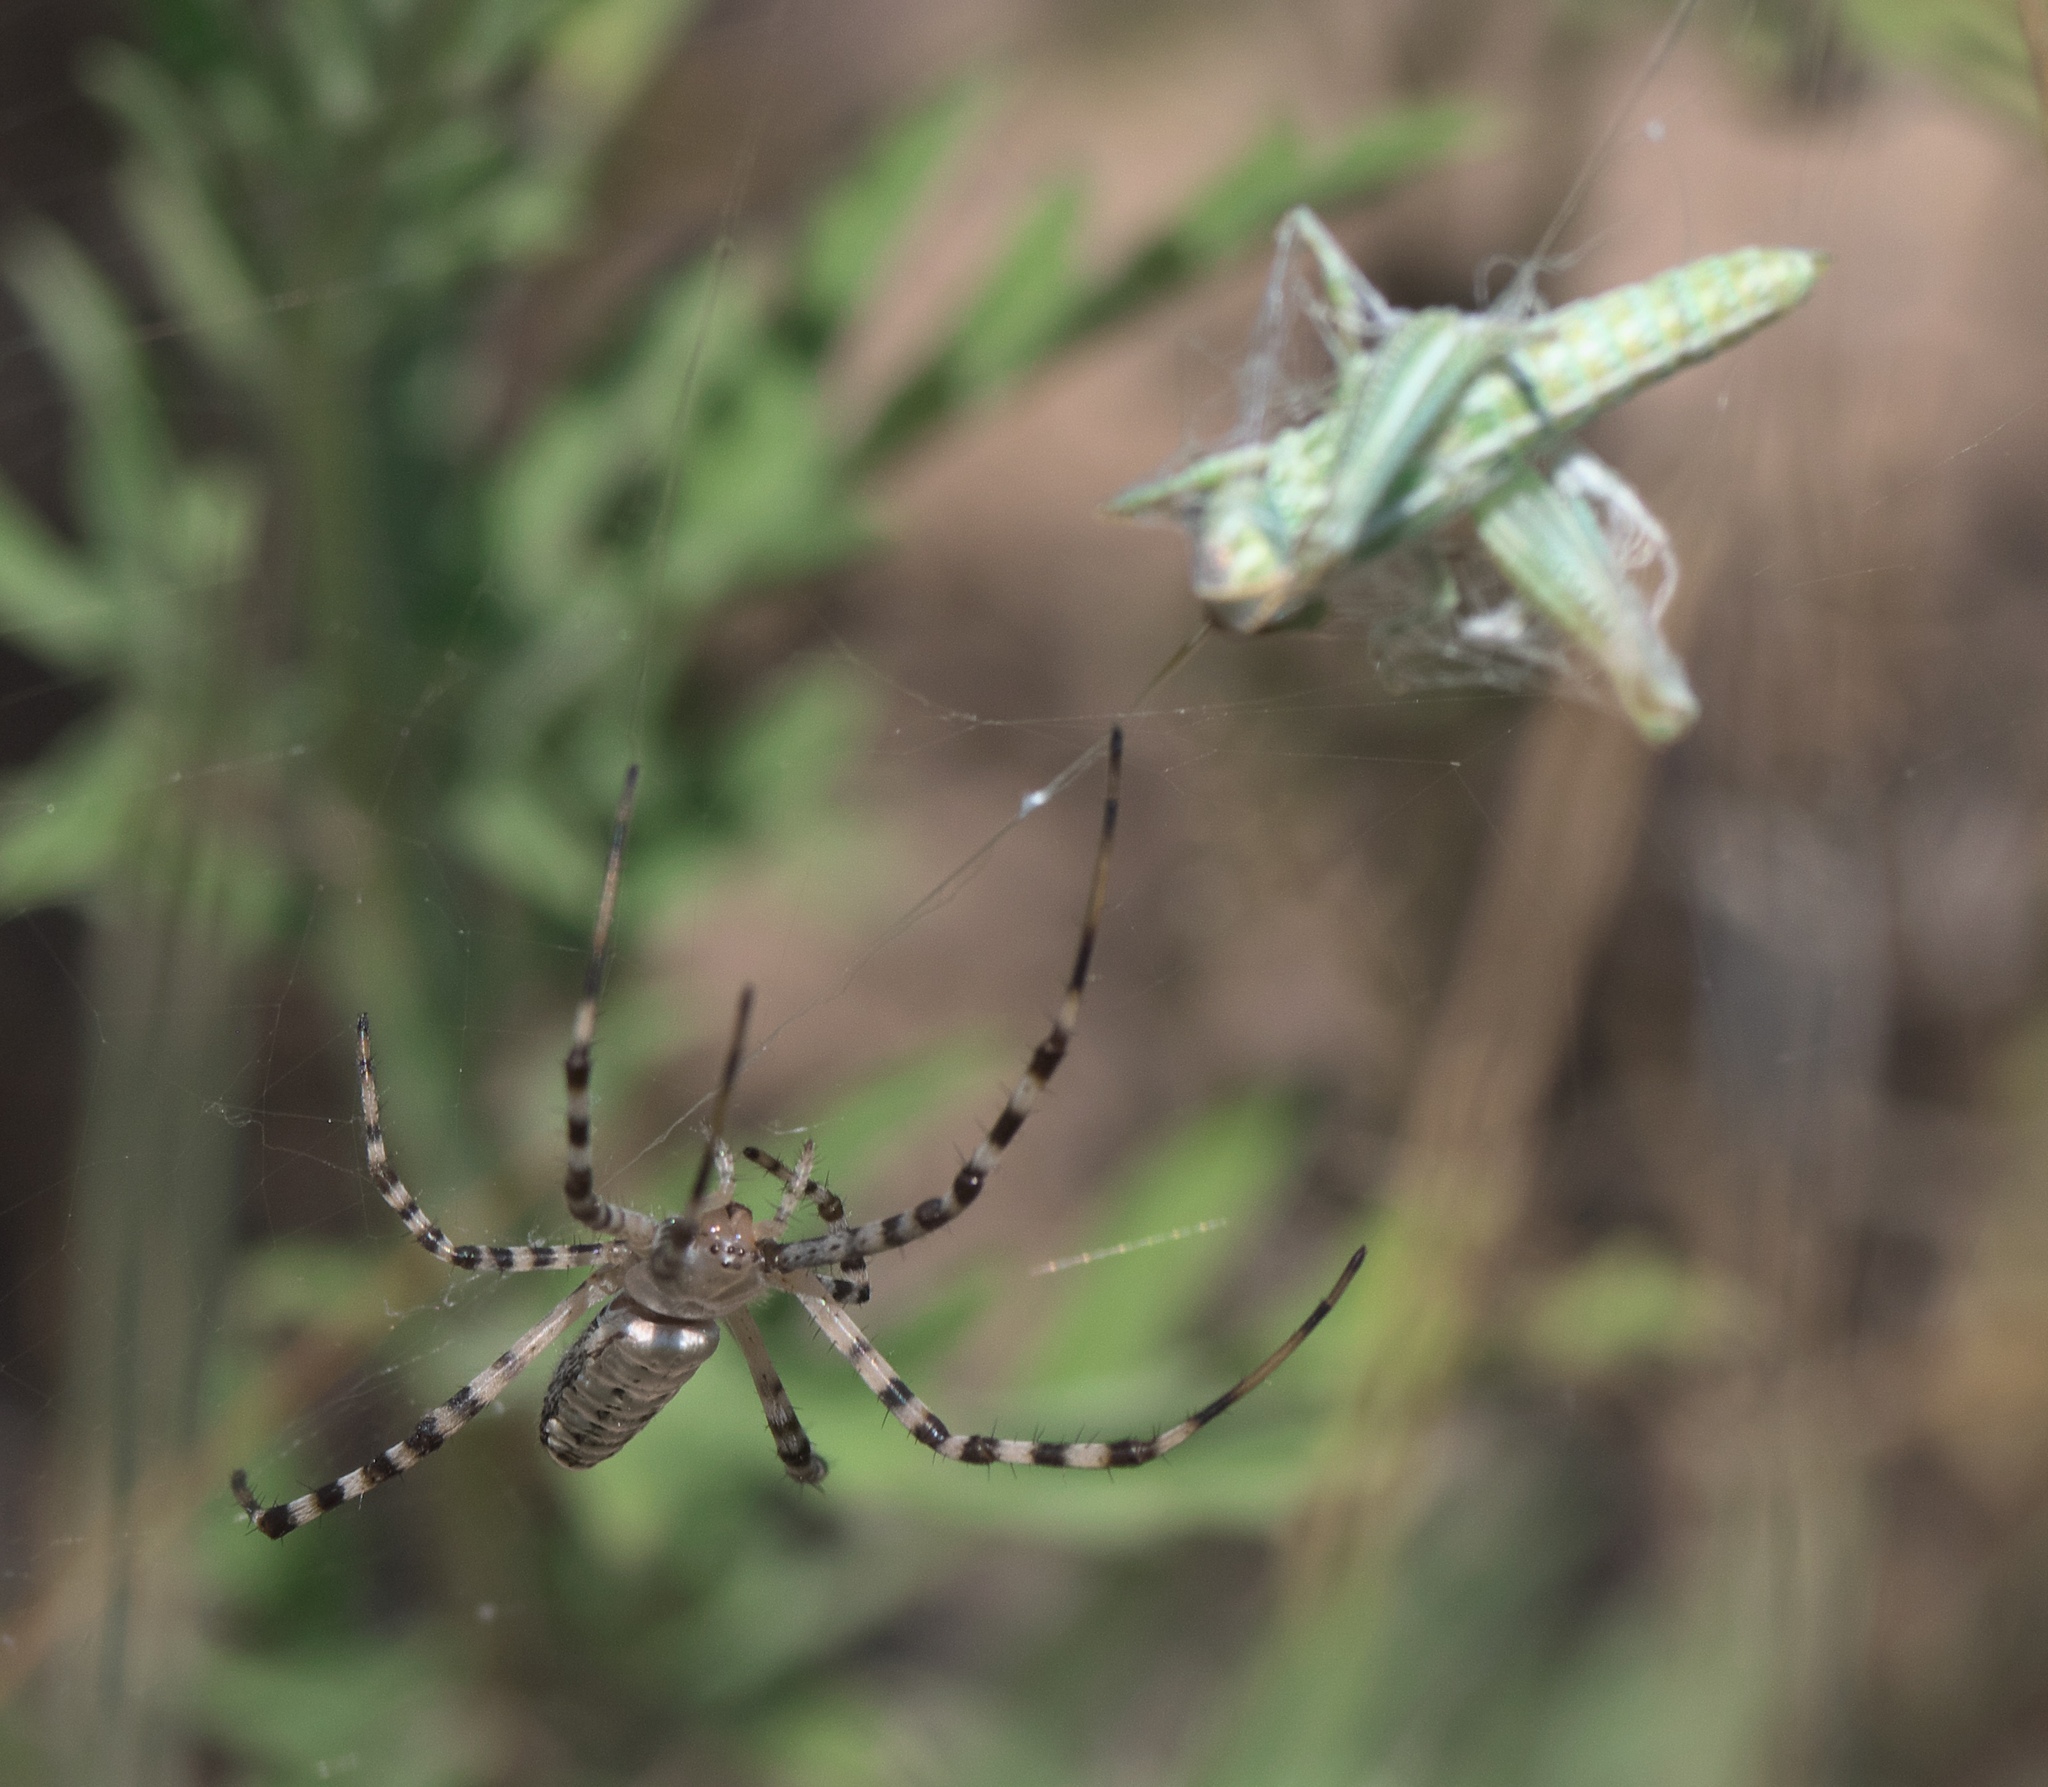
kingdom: Animalia
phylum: Arthropoda
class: Arachnida
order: Araneae
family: Araneidae
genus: Argiope
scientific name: Argiope trifasciata
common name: Banded garden spider
